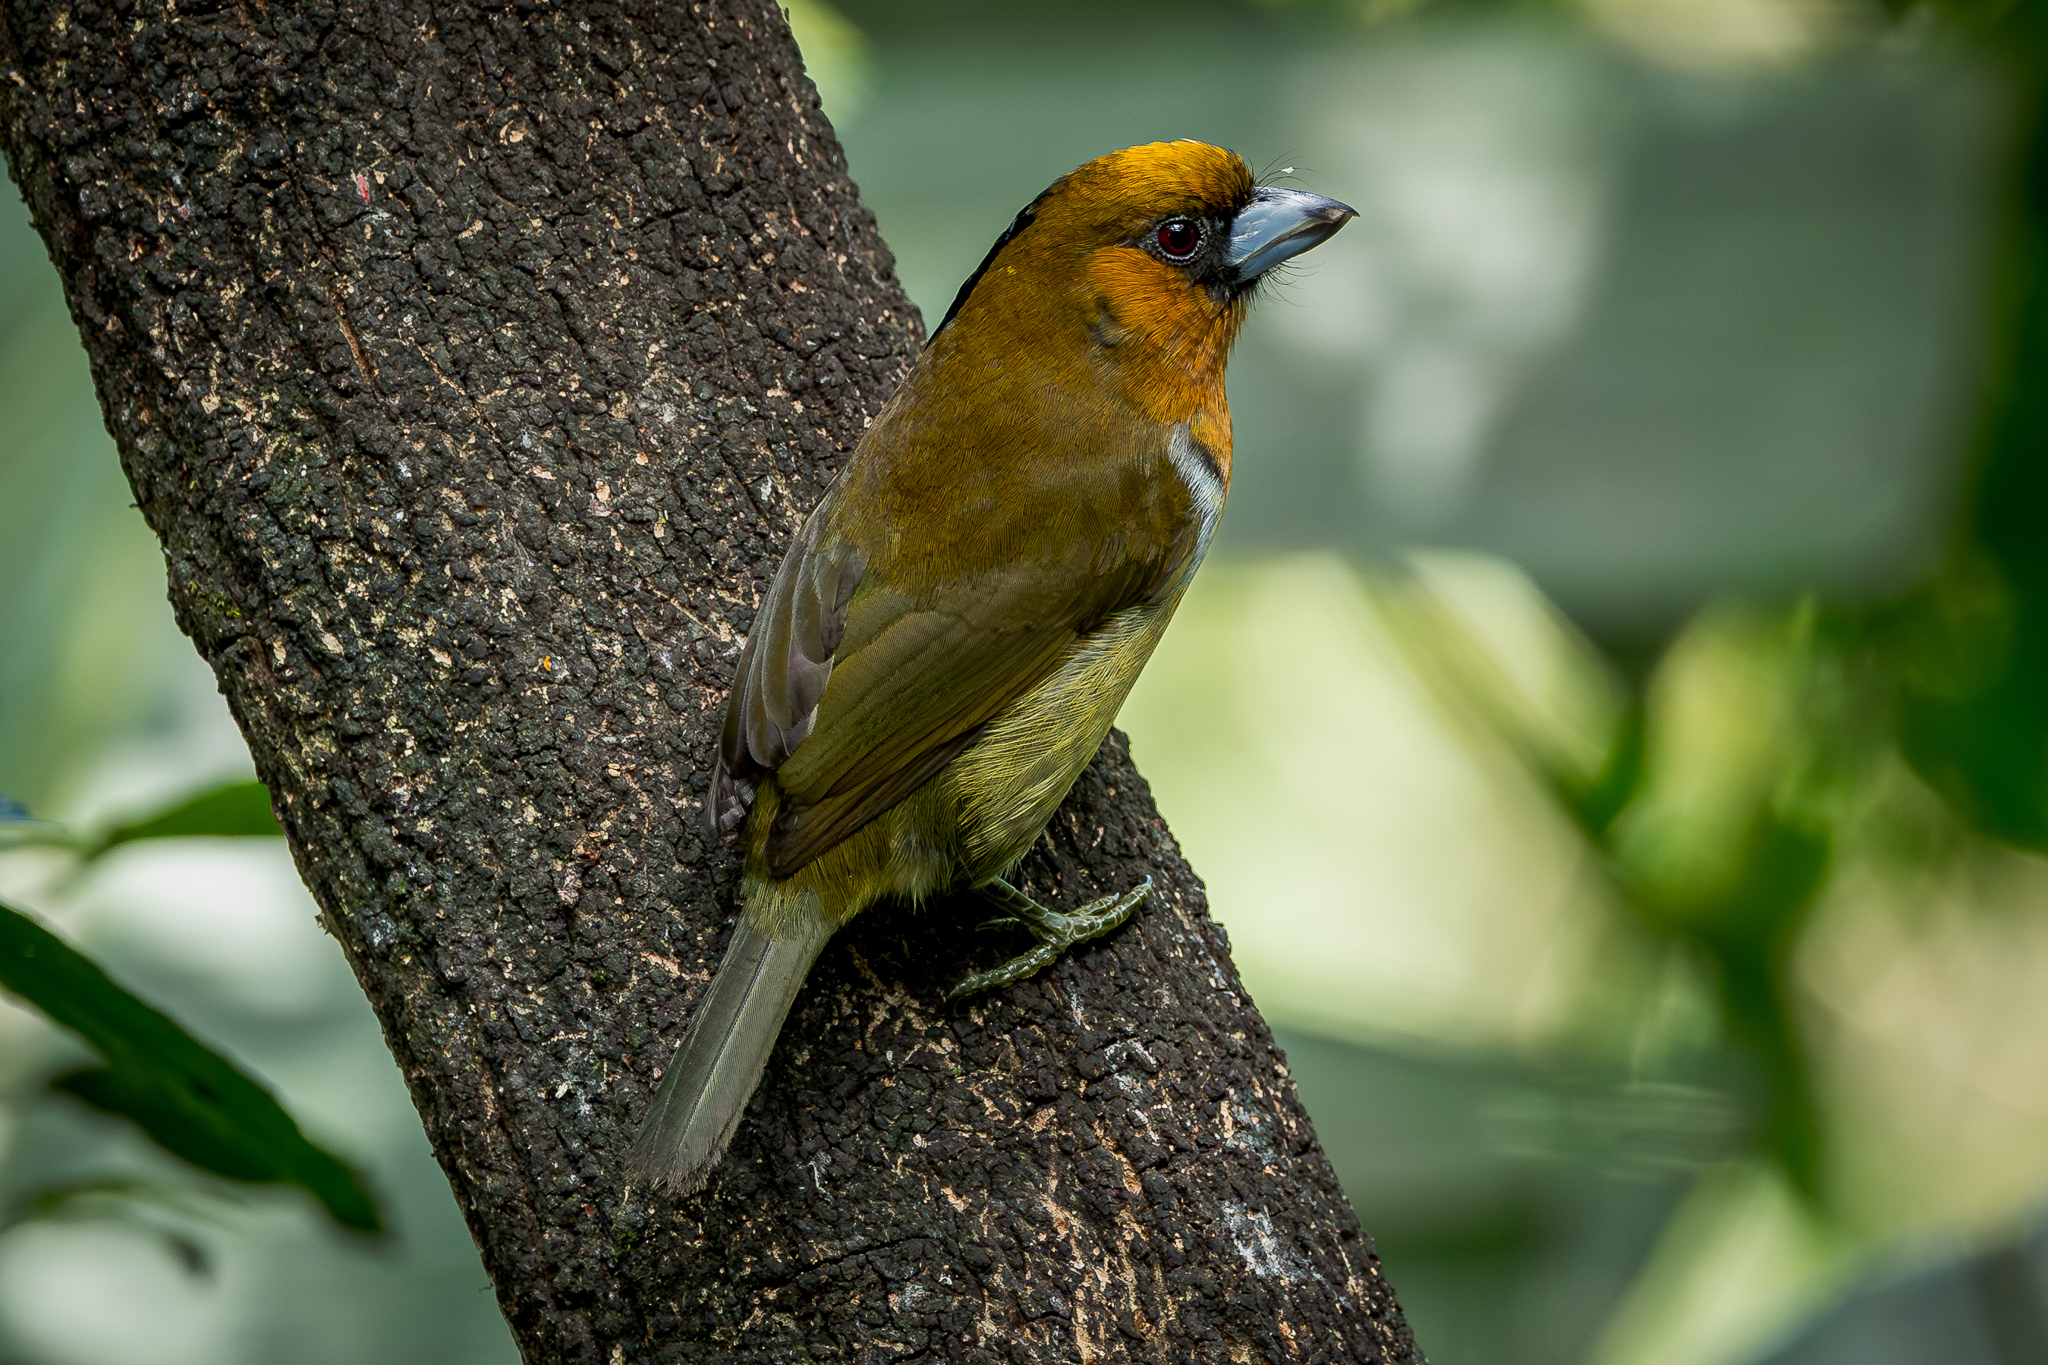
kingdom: Animalia
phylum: Chordata
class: Aves
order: Piciformes
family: Semnornithidae
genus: Semnornis
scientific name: Semnornis frantzii
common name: Prong-billed barbet
